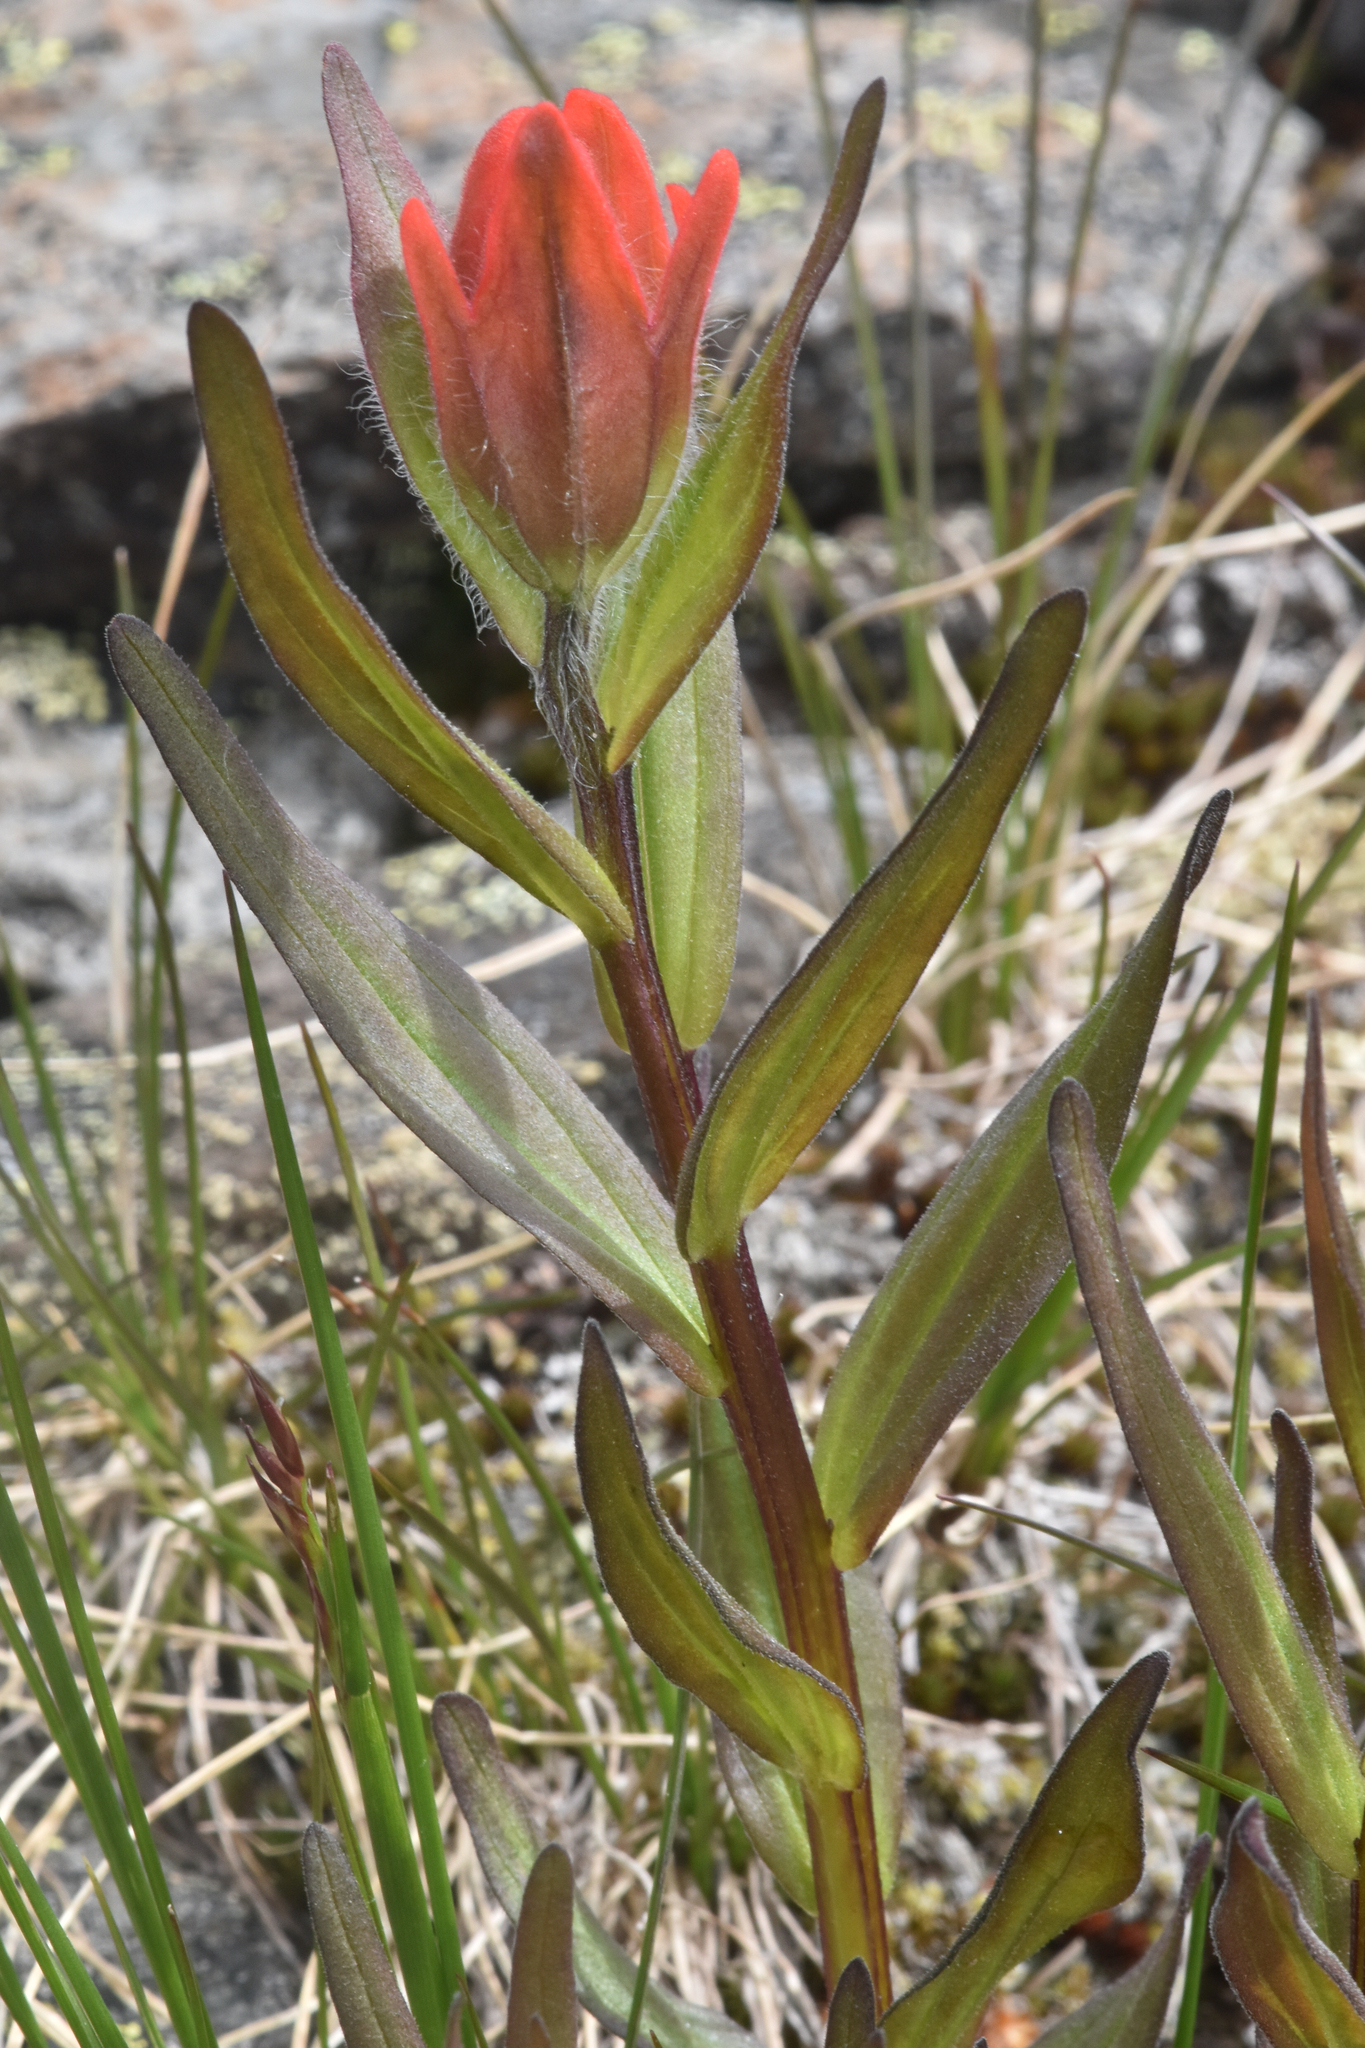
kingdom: Plantae
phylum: Tracheophyta
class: Magnoliopsida
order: Lamiales
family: Orobanchaceae
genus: Castilleja
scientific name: Castilleja miniata
